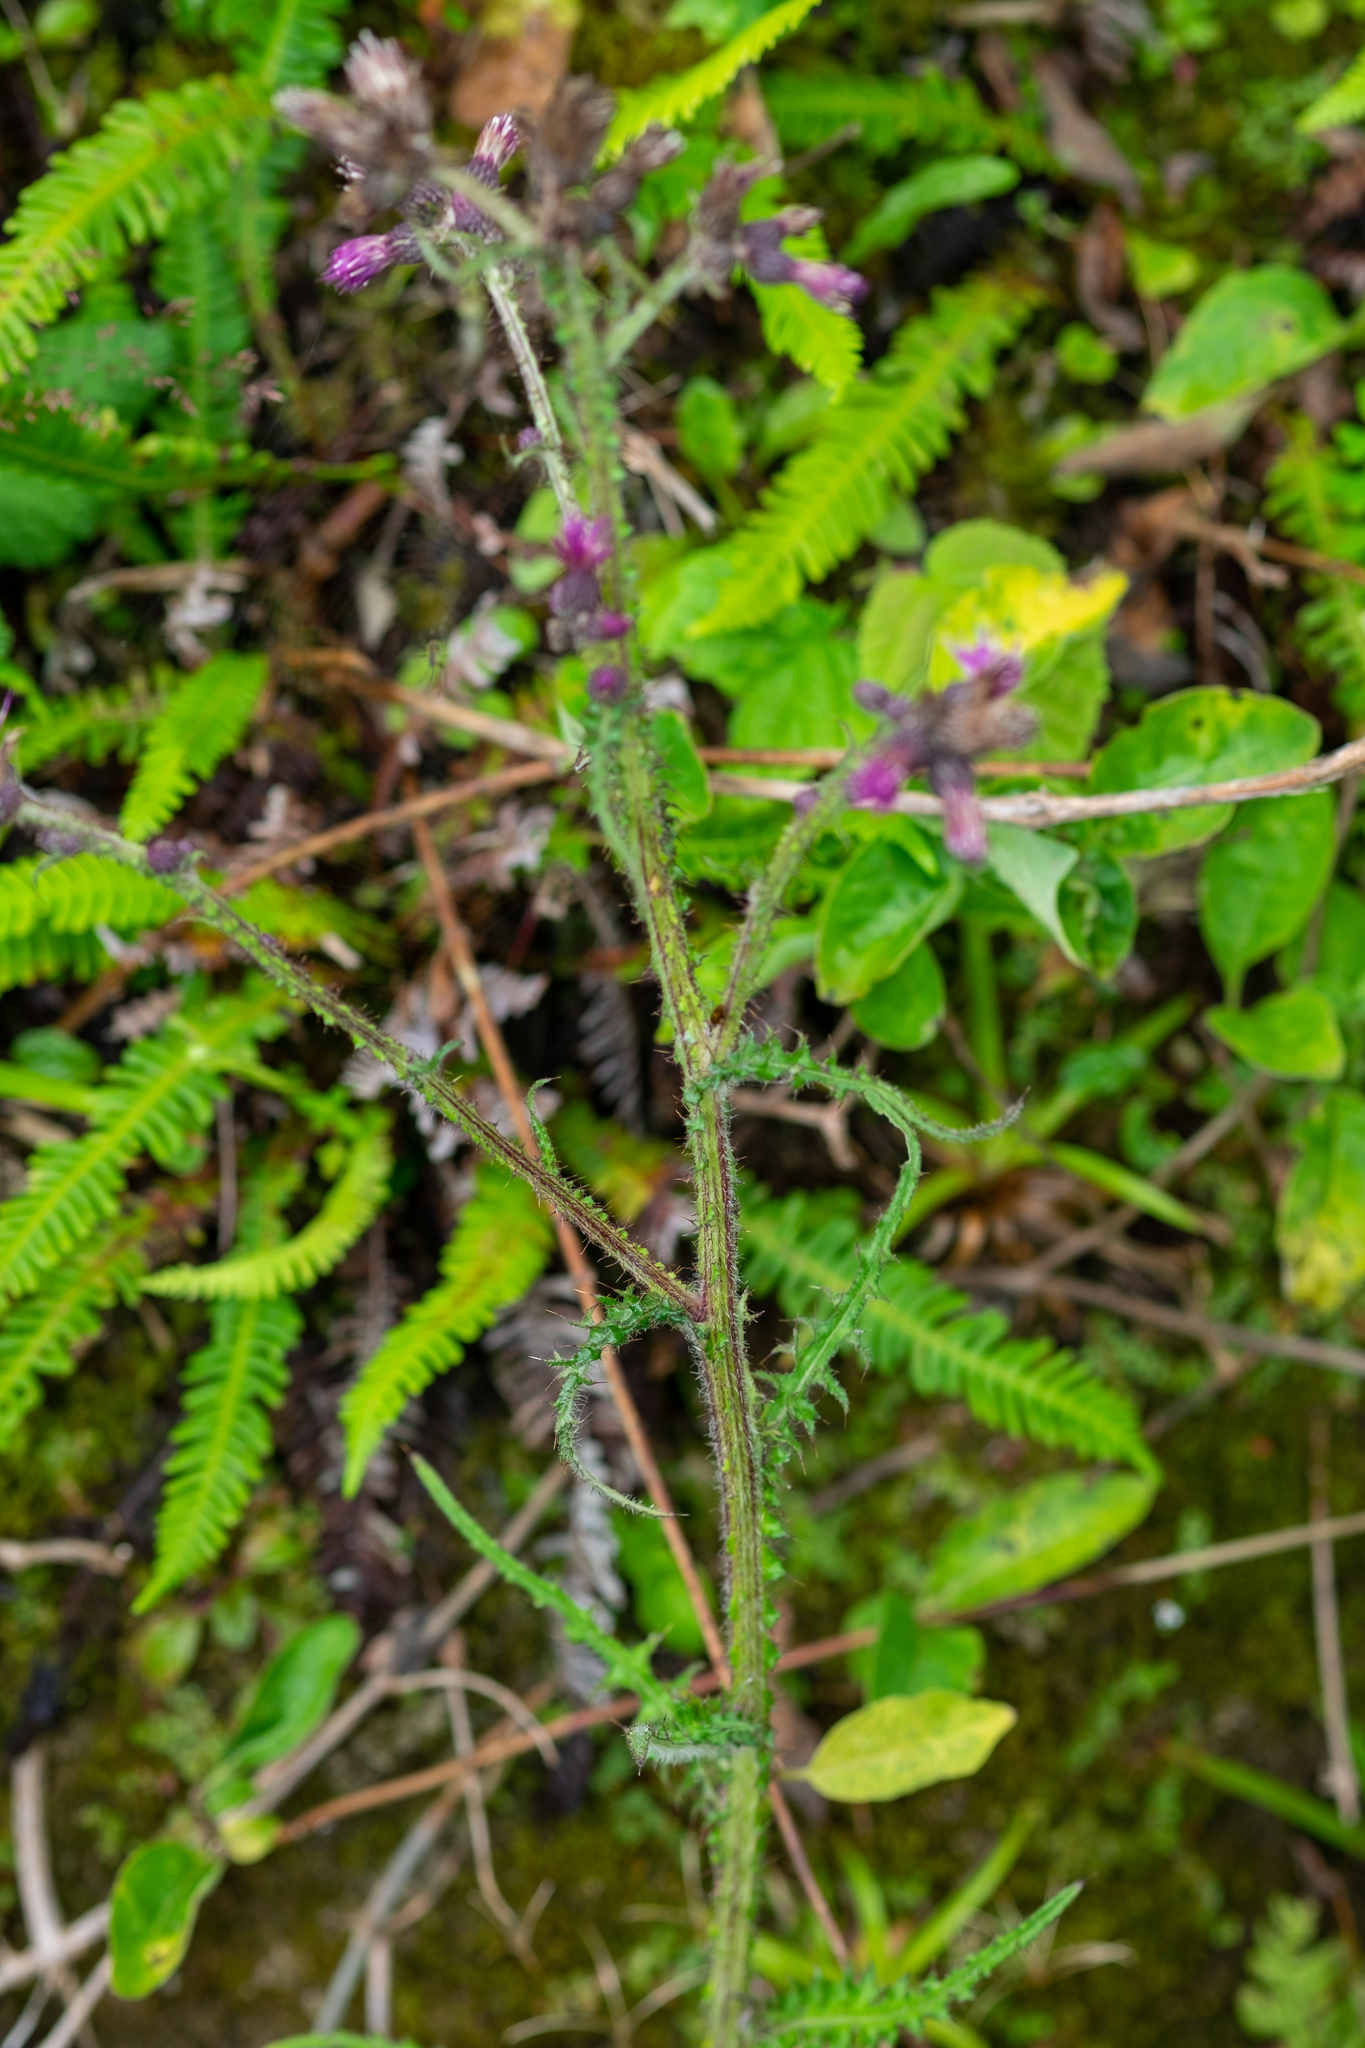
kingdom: Plantae
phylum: Tracheophyta
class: Magnoliopsida
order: Asterales
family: Asteraceae
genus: Cirsium
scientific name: Cirsium palustre
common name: Marsh thistle
